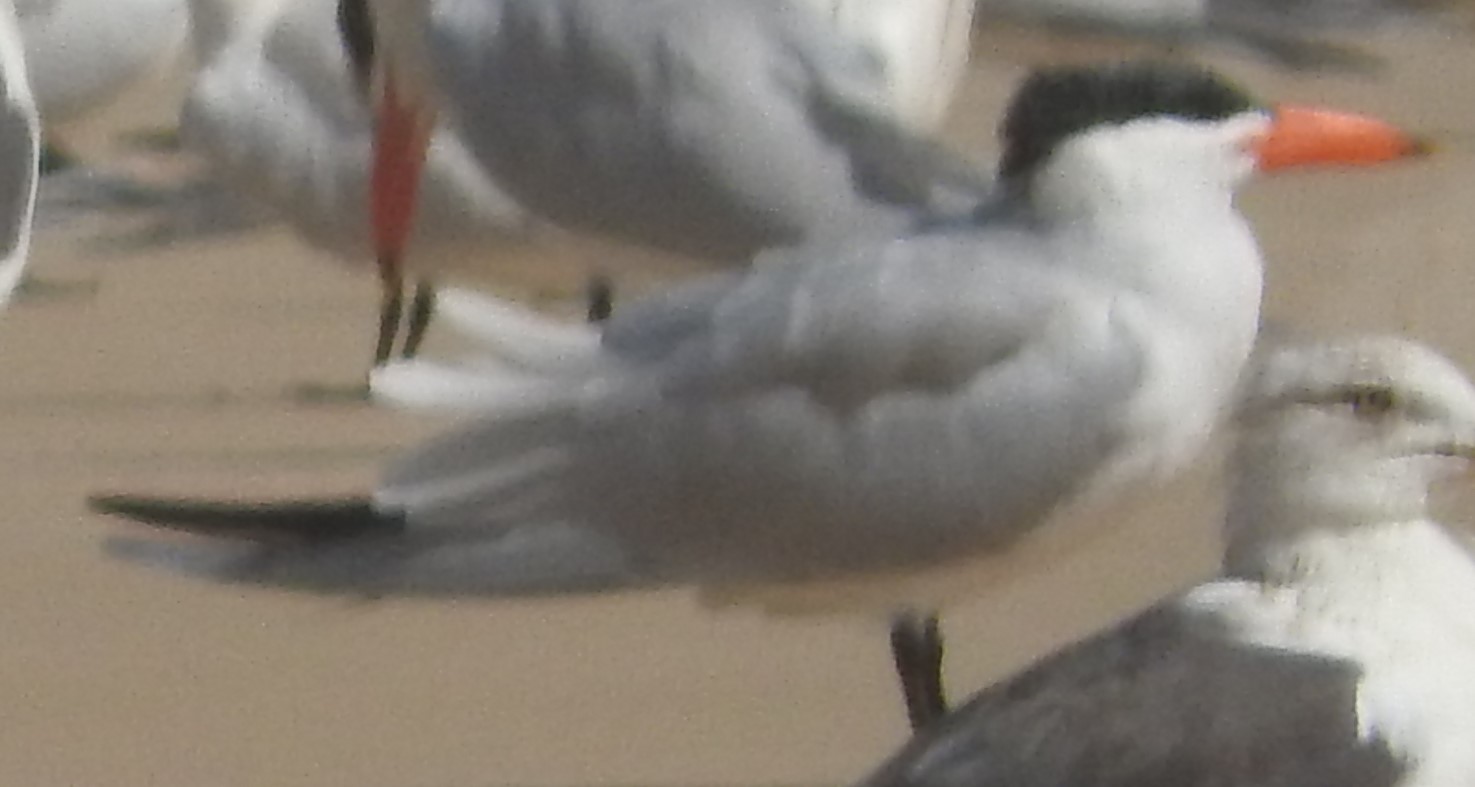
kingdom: Animalia
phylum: Chordata
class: Aves
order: Charadriiformes
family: Laridae
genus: Hydroprogne
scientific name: Hydroprogne caspia
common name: Caspian tern
